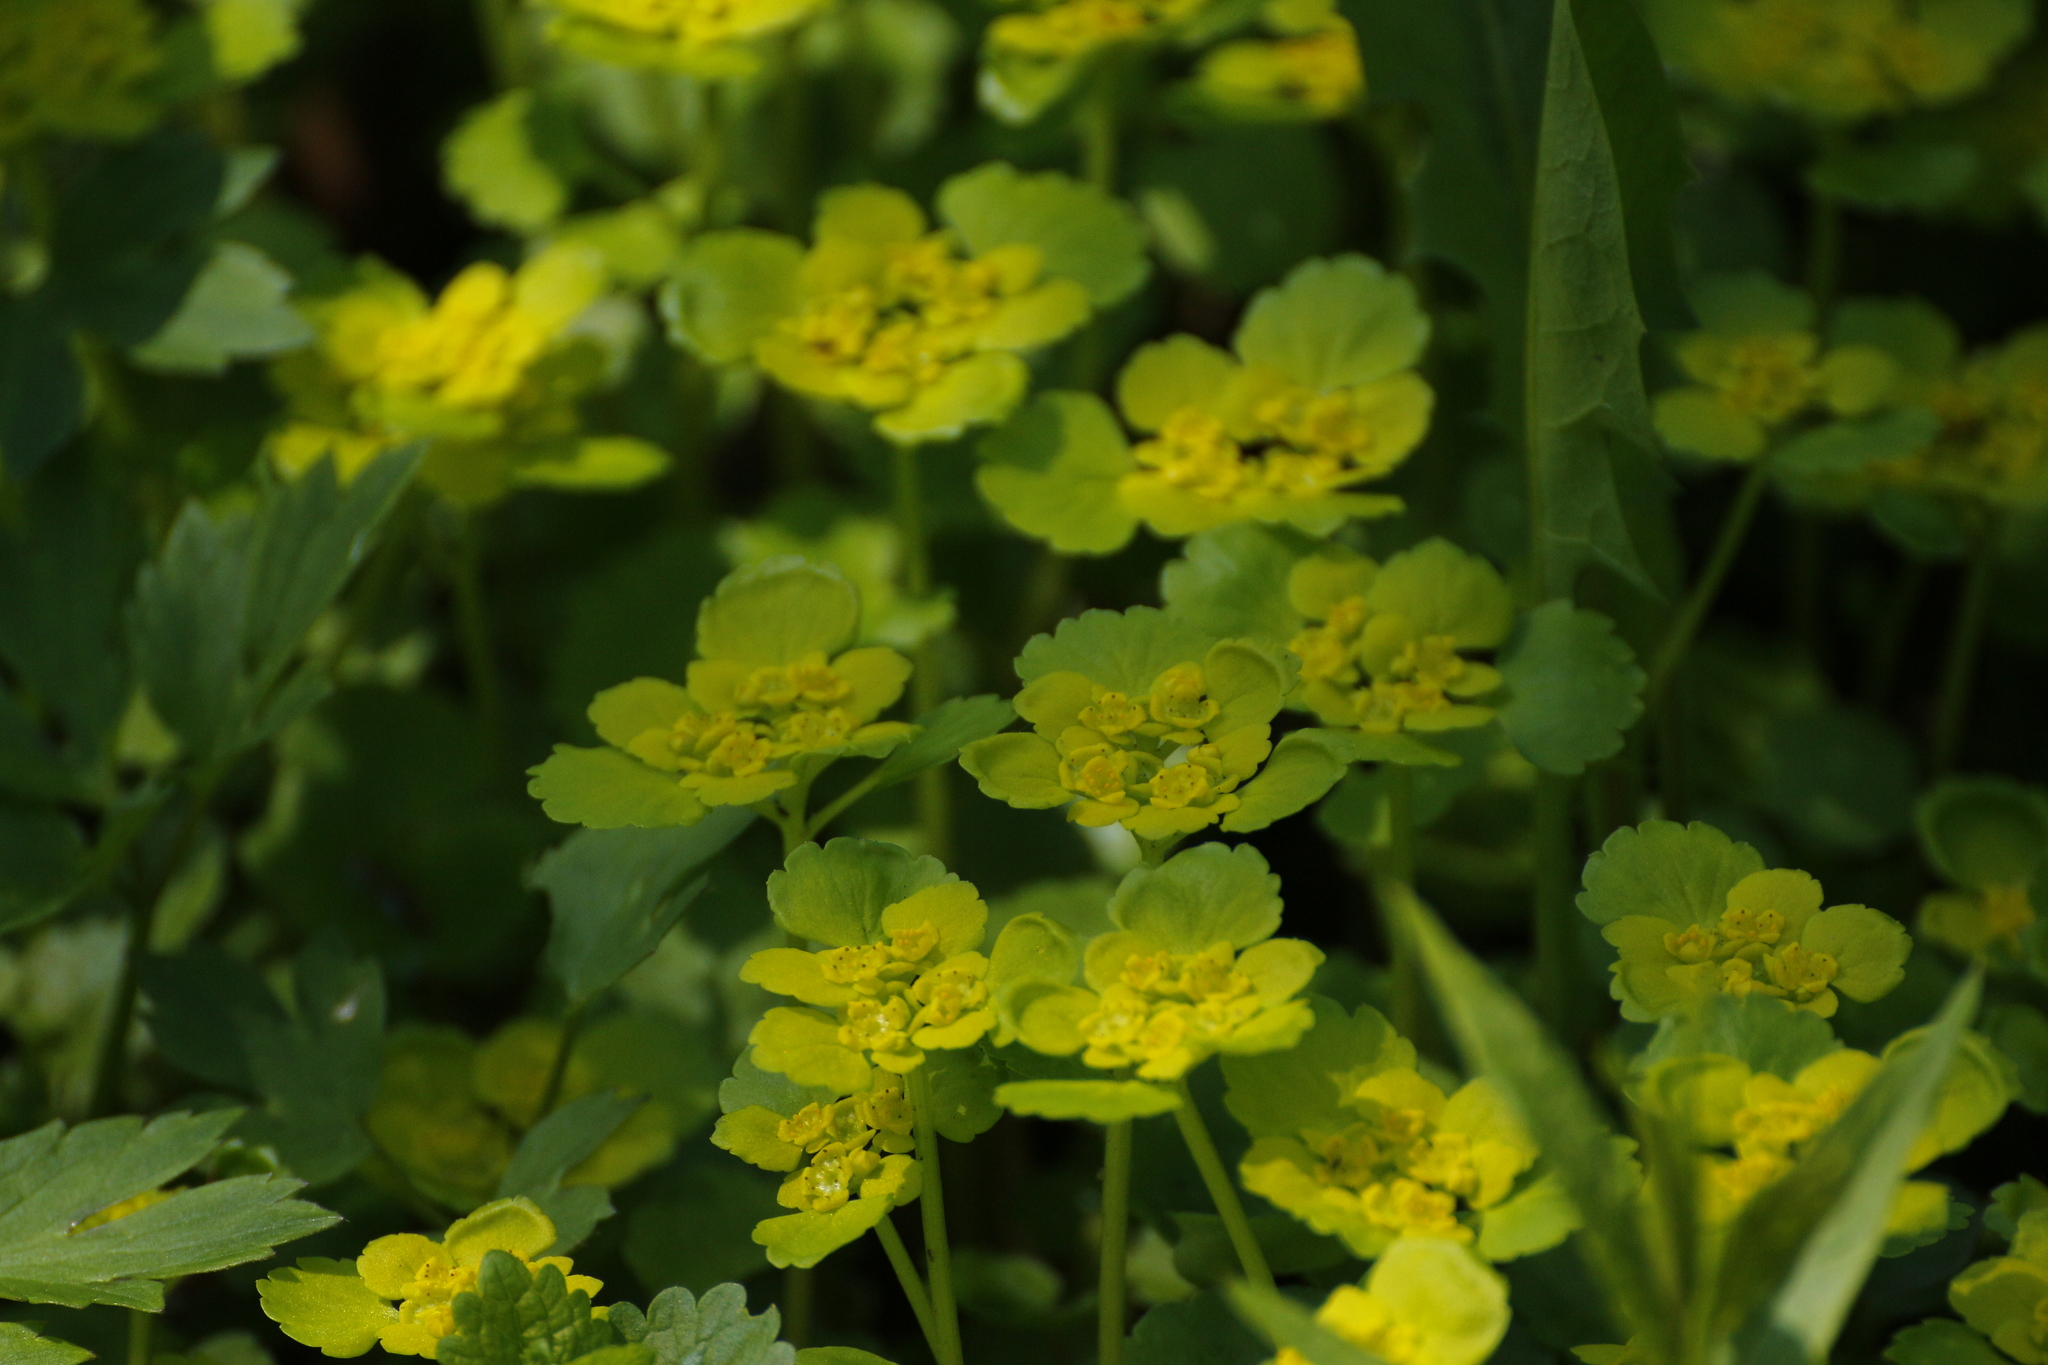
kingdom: Plantae
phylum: Tracheophyta
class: Magnoliopsida
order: Saxifragales
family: Saxifragaceae
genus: Chrysosplenium
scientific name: Chrysosplenium alternifolium
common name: Alternate-leaved golden-saxifrage
